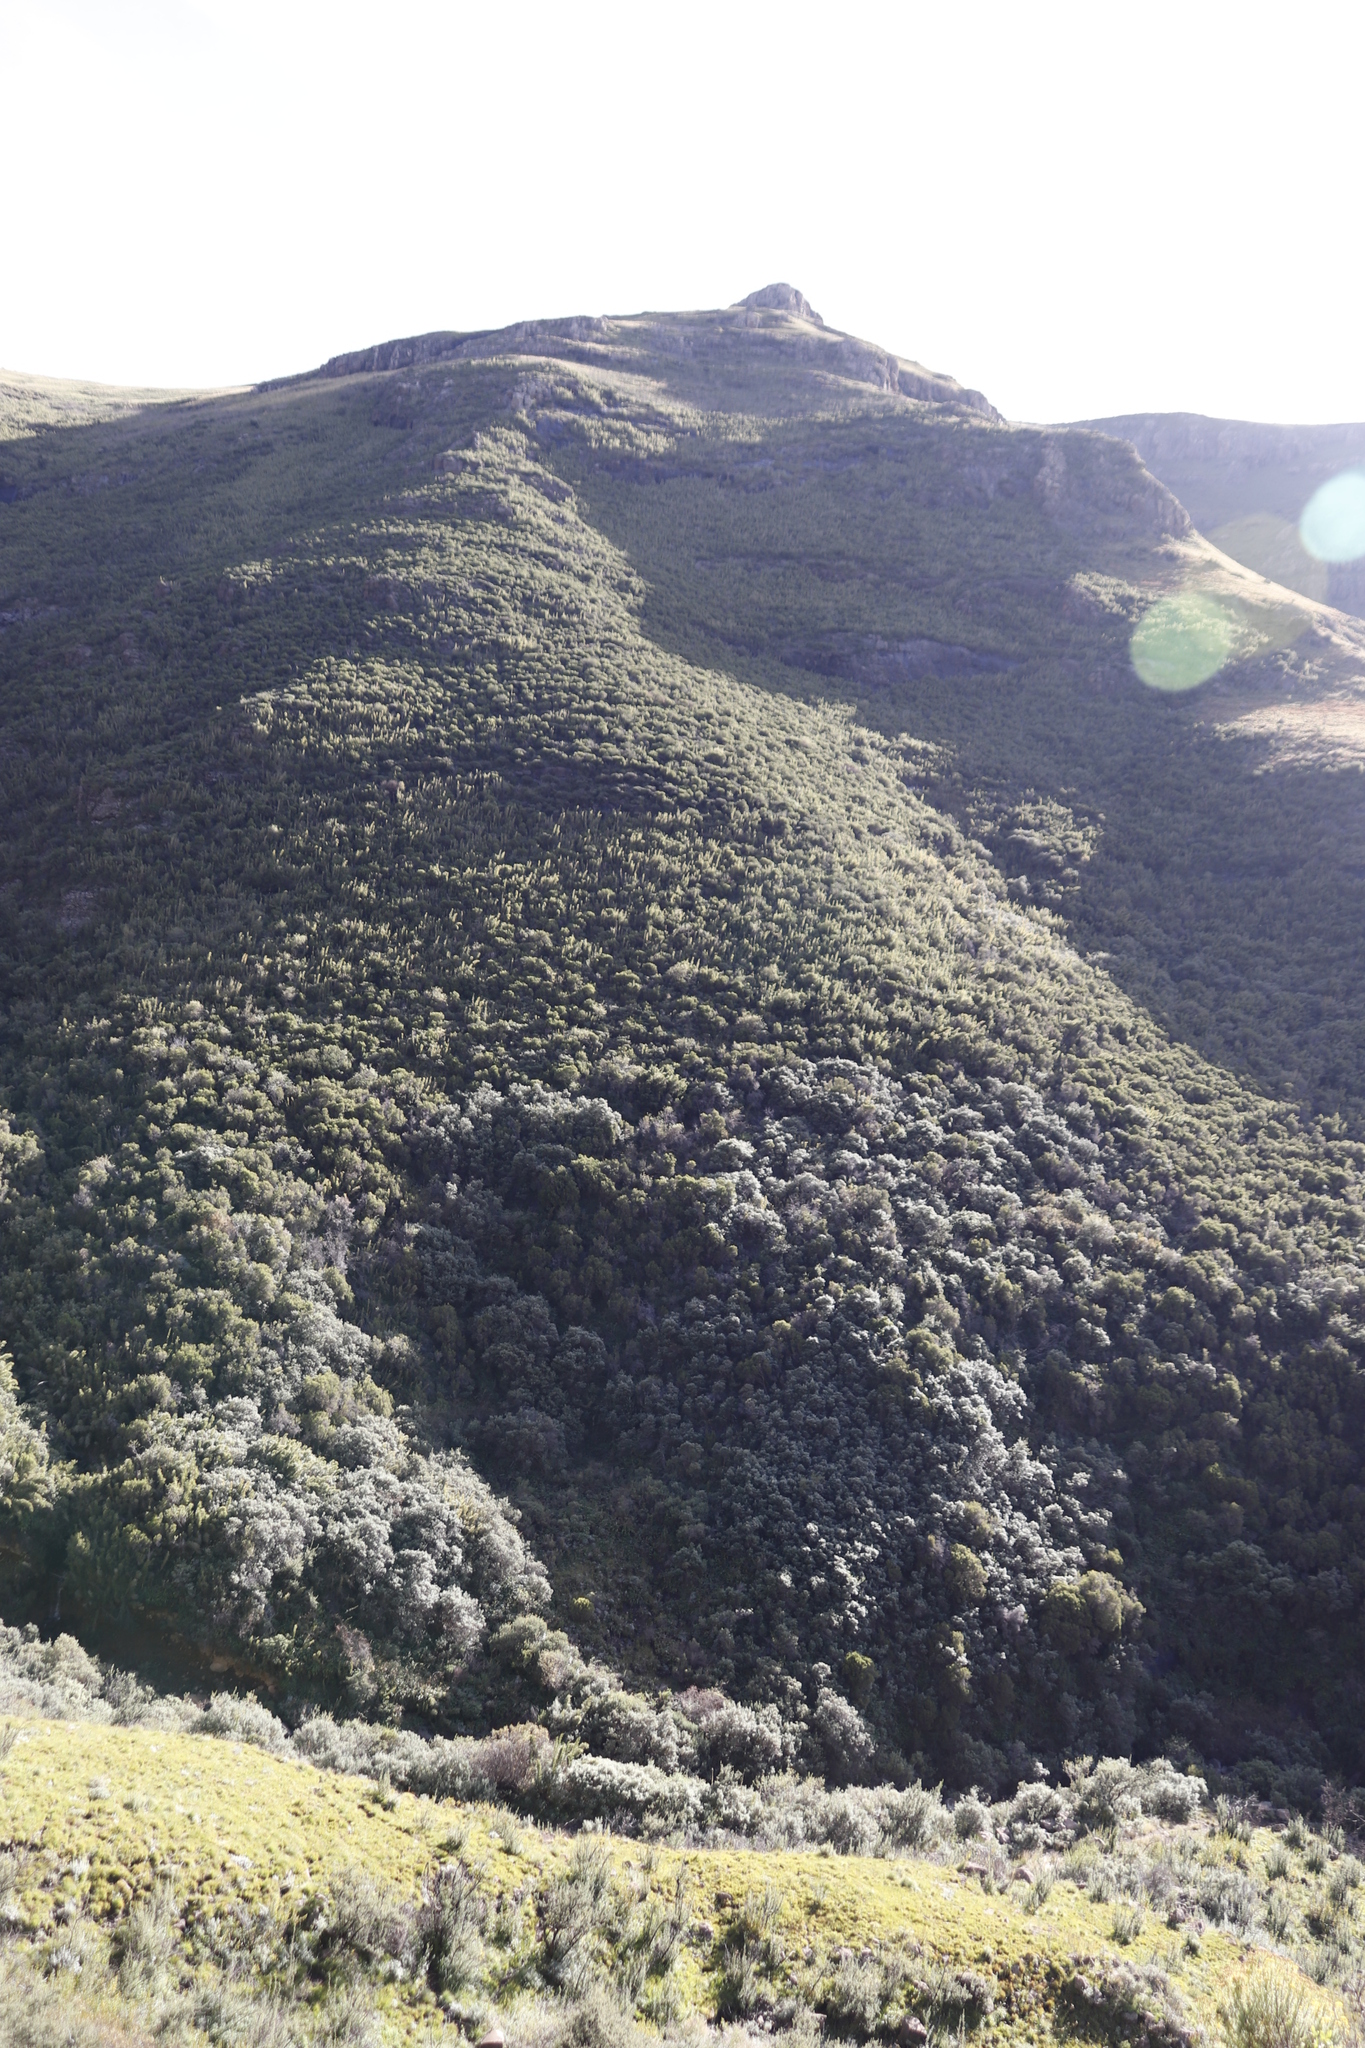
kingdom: Plantae
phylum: Tracheophyta
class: Liliopsida
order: Poales
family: Poaceae
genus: Bergbambos
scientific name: Bergbambos tessellata
